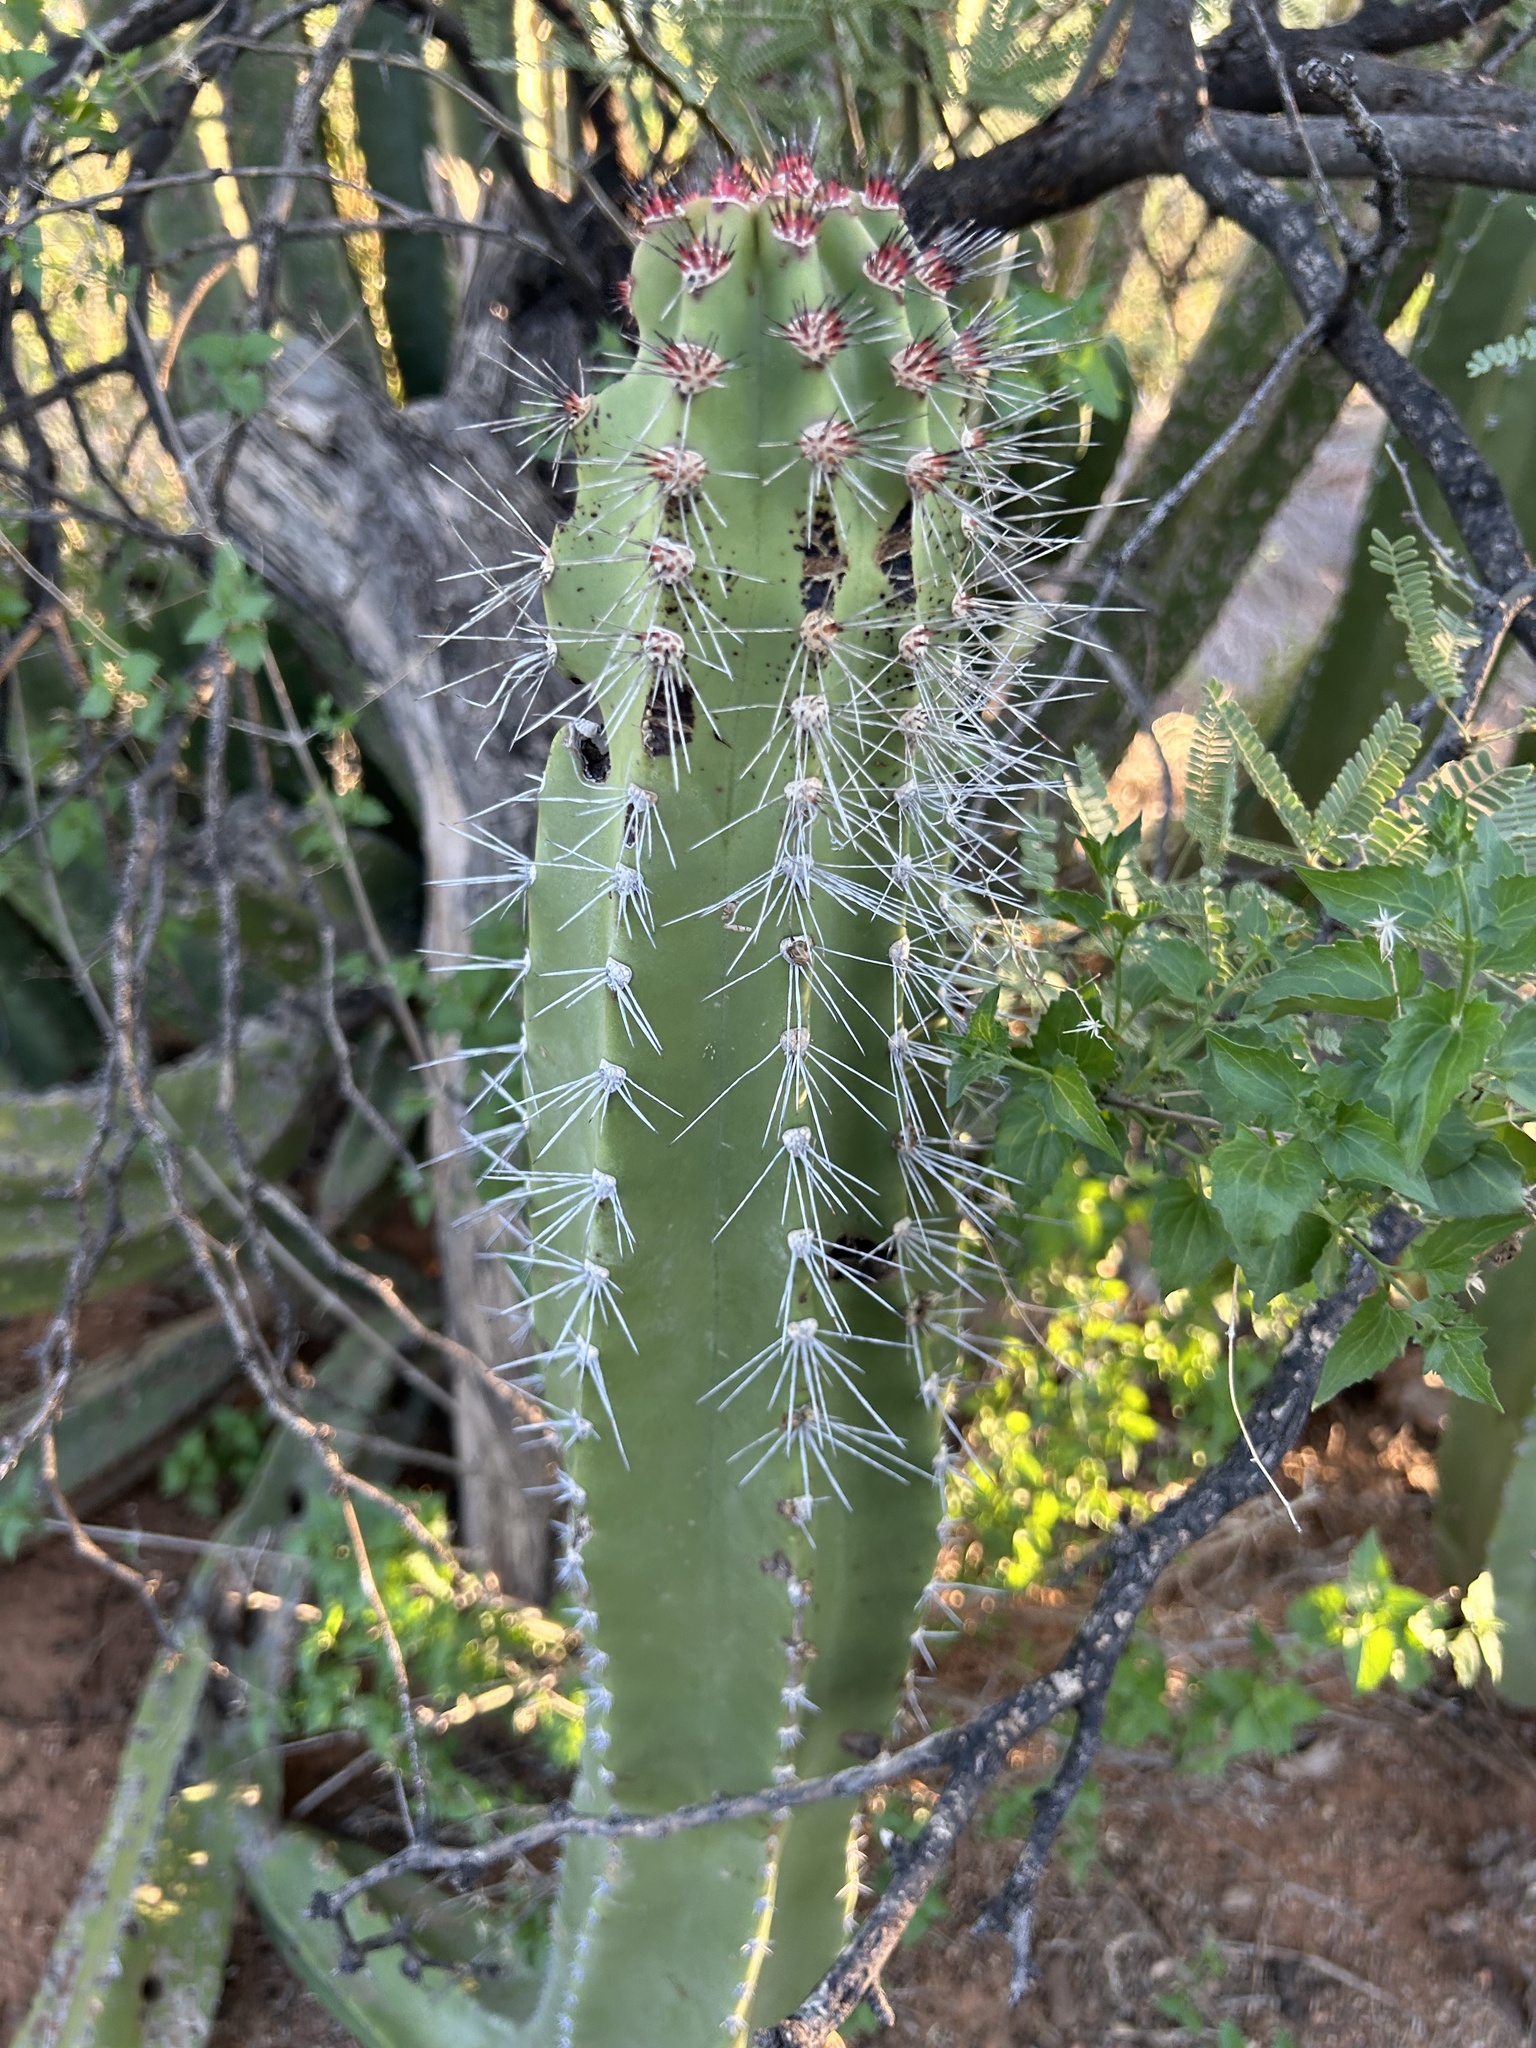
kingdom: Plantae
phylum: Tracheophyta
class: Magnoliopsida
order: Caryophyllales
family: Cactaceae
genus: Pachycereus
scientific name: Pachycereus schottii
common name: Senita cactus
